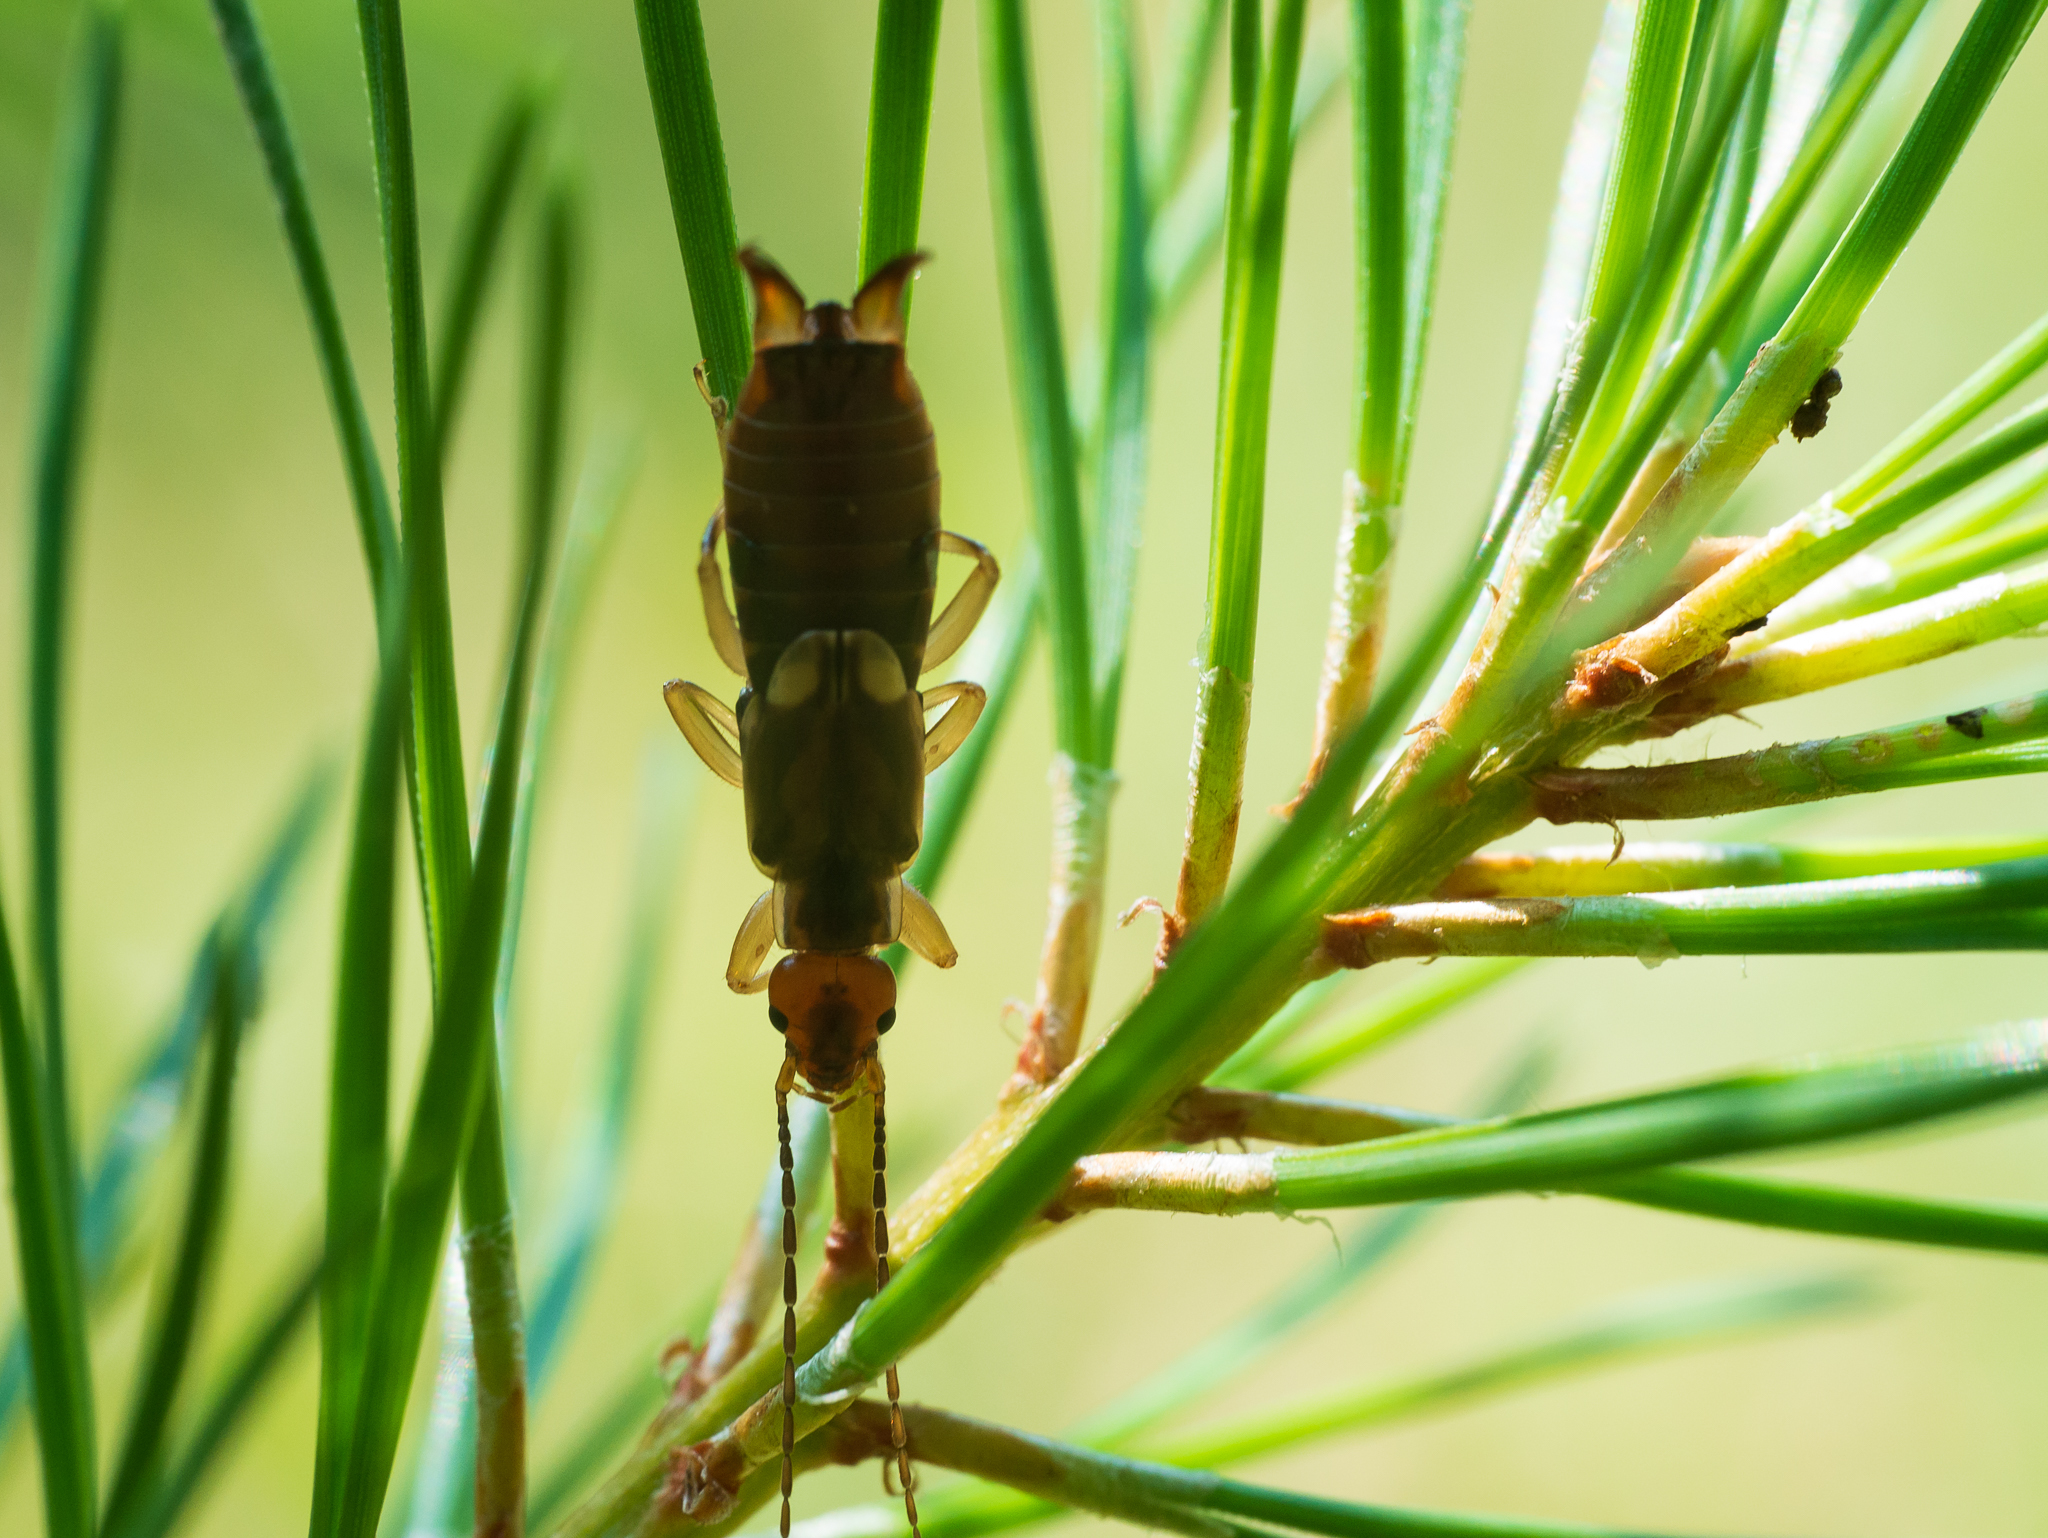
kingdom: Animalia
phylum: Arthropoda
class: Insecta
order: Dermaptera
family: Forficulidae
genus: Forficula
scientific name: Forficula
